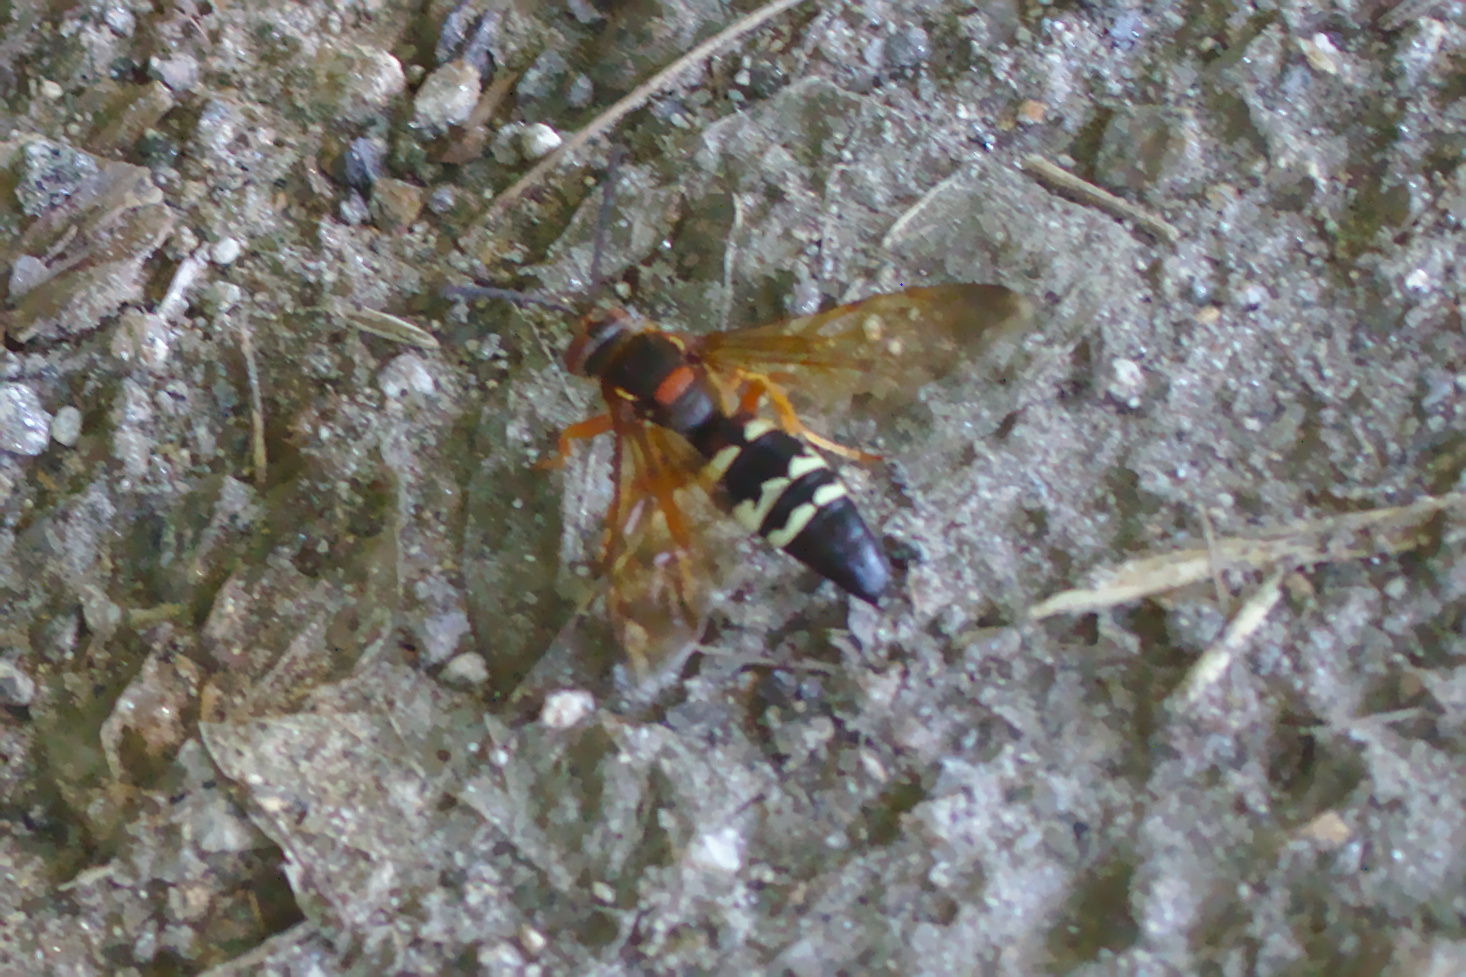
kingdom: Animalia
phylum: Arthropoda
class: Insecta
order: Hymenoptera
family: Crabronidae
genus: Sphecius
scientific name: Sphecius speciosus
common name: Cicada killer
